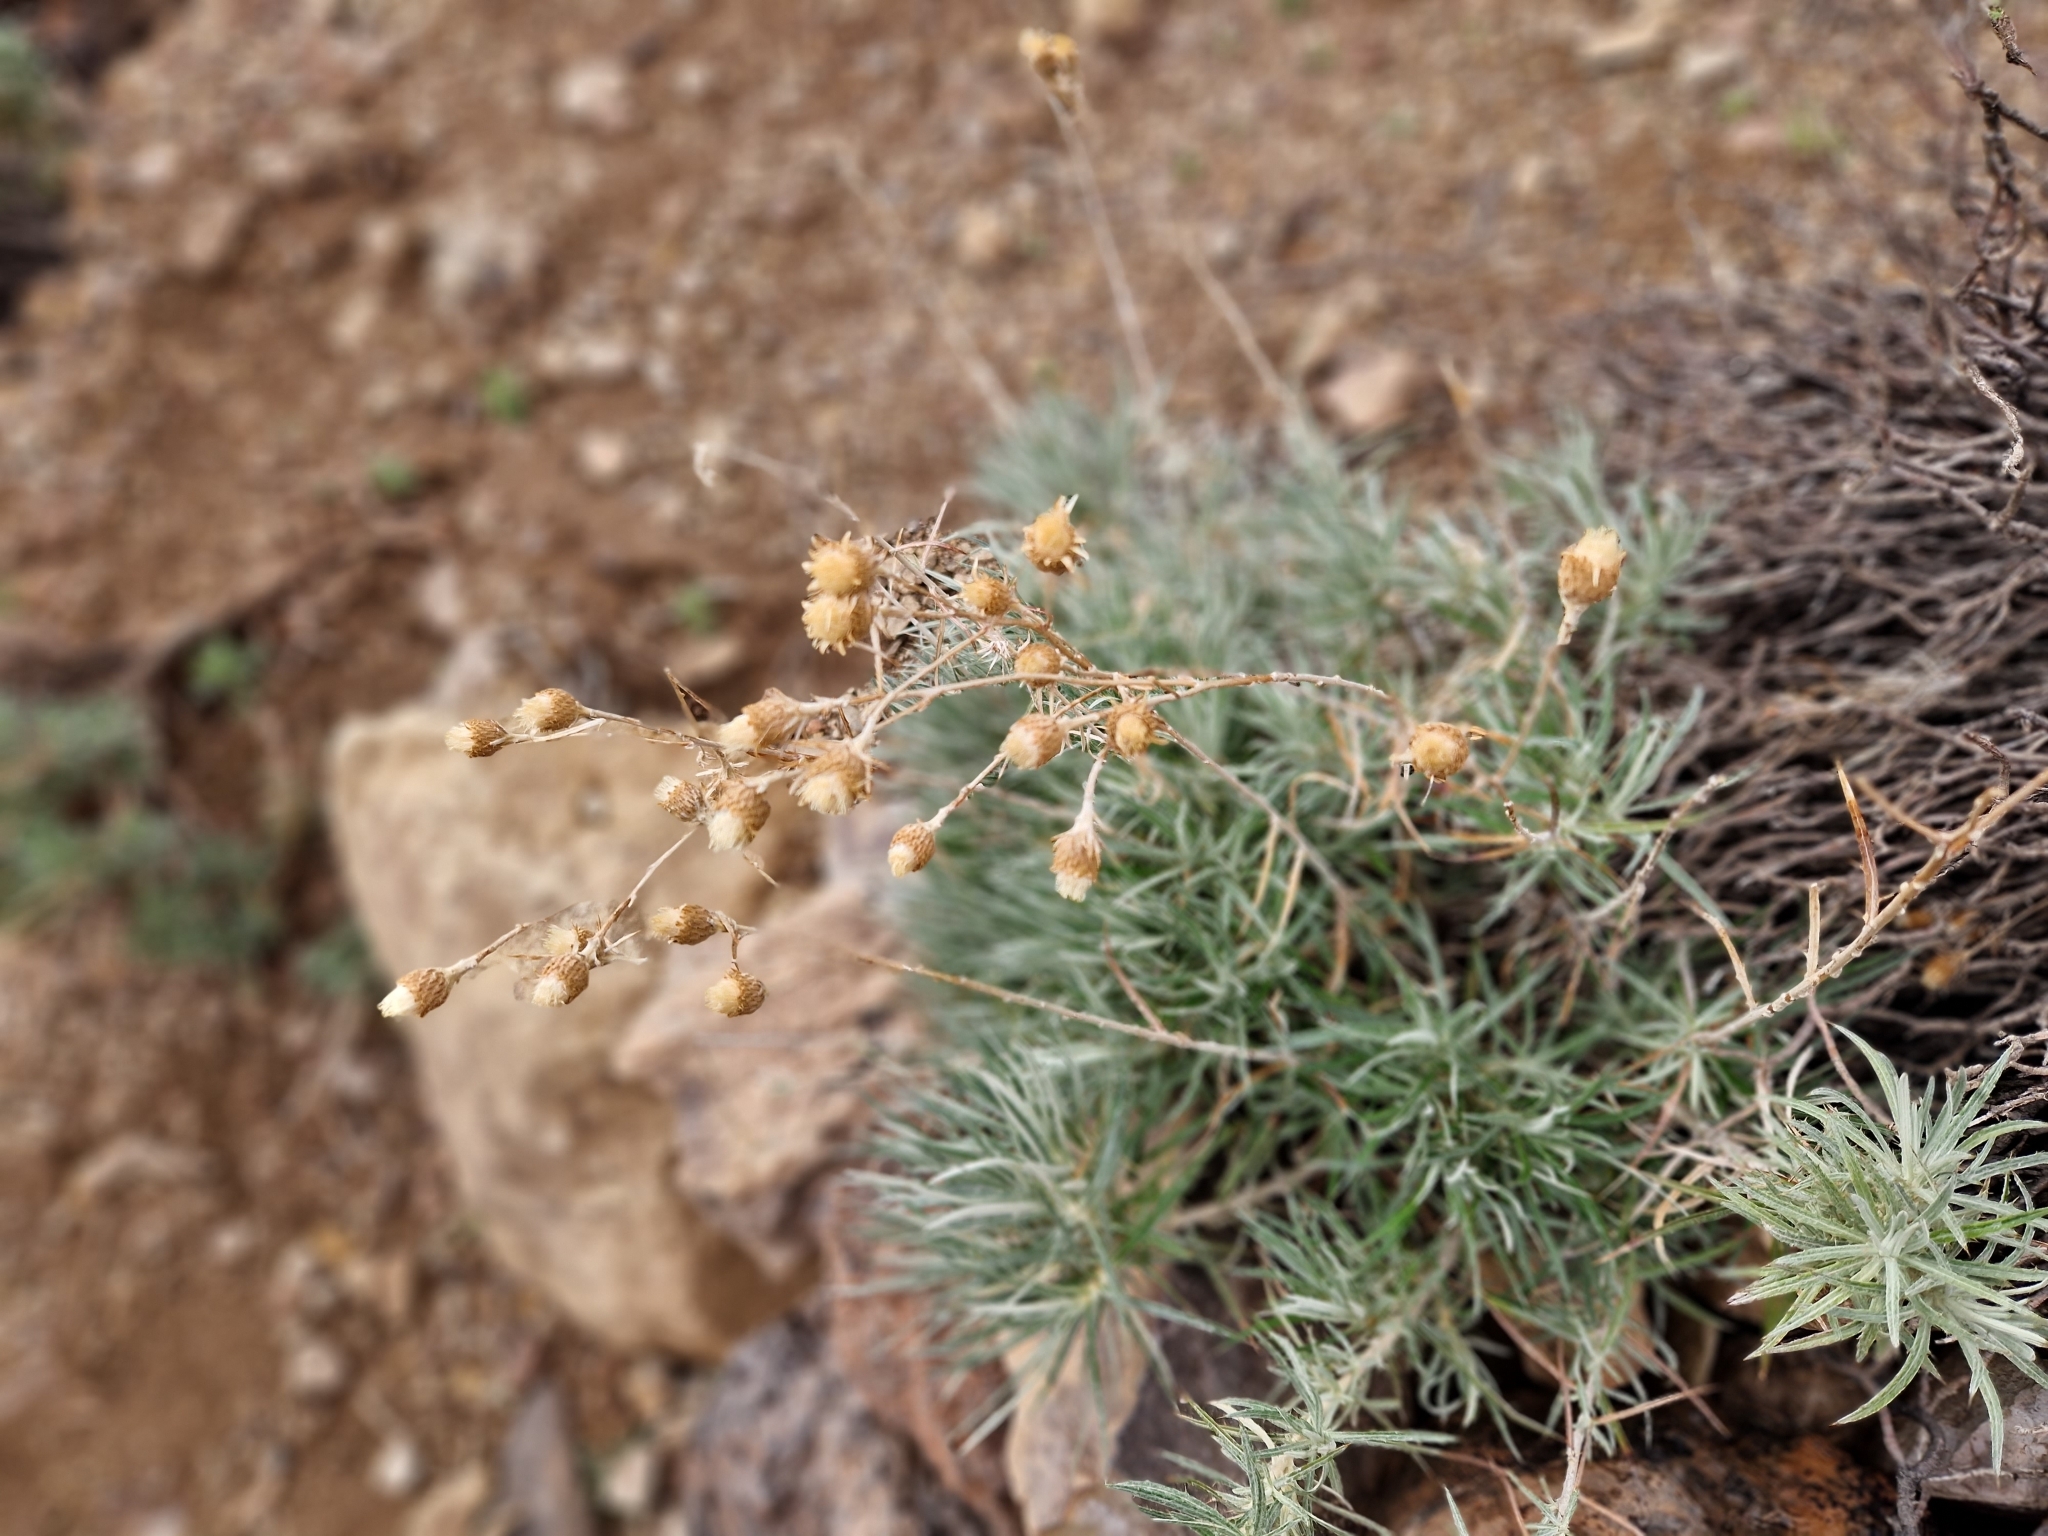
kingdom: Plantae
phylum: Tracheophyta
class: Magnoliopsida
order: Asterales
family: Asteraceae
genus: Carlina
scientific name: Carlina xeranthemoides
